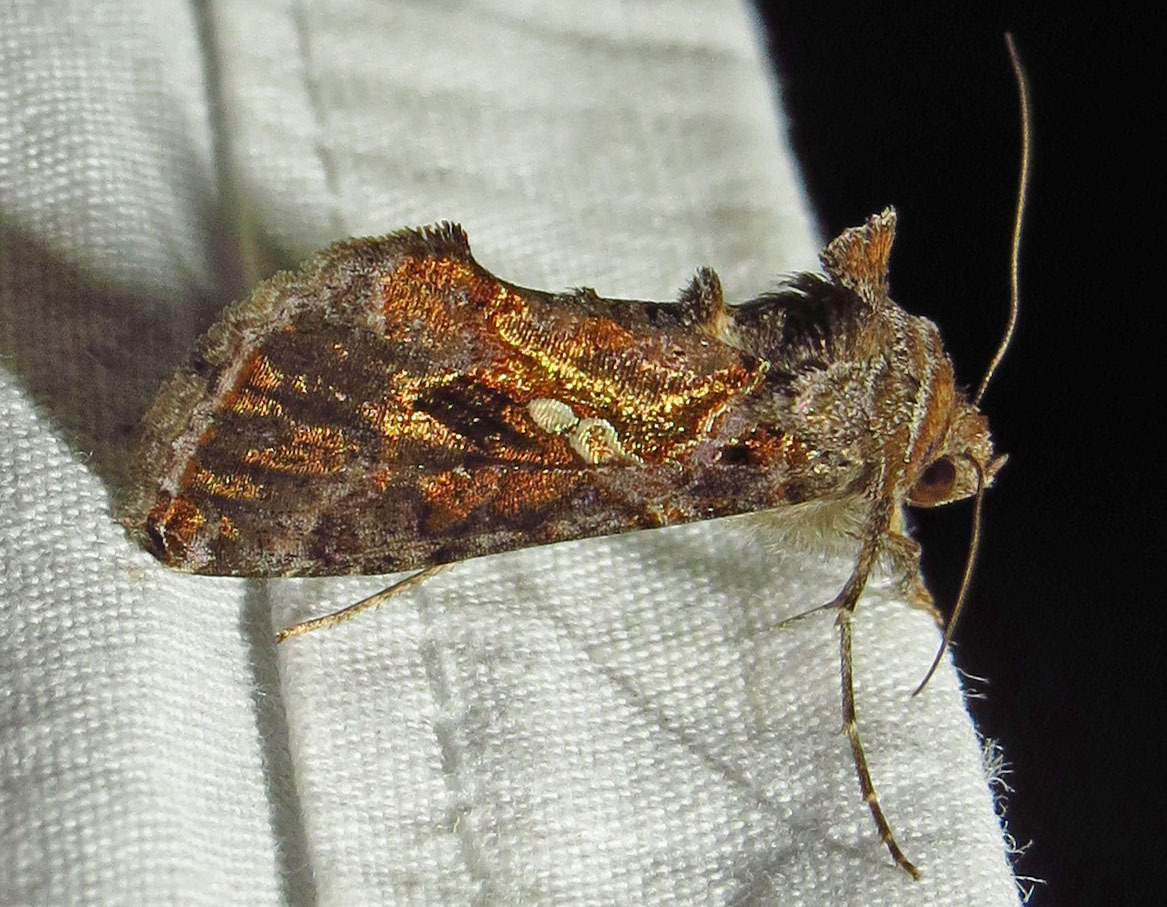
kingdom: Animalia
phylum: Arthropoda
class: Insecta
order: Lepidoptera
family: Noctuidae
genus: Chrysodeixis
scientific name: Chrysodeixis includens
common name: Cutworm moth
